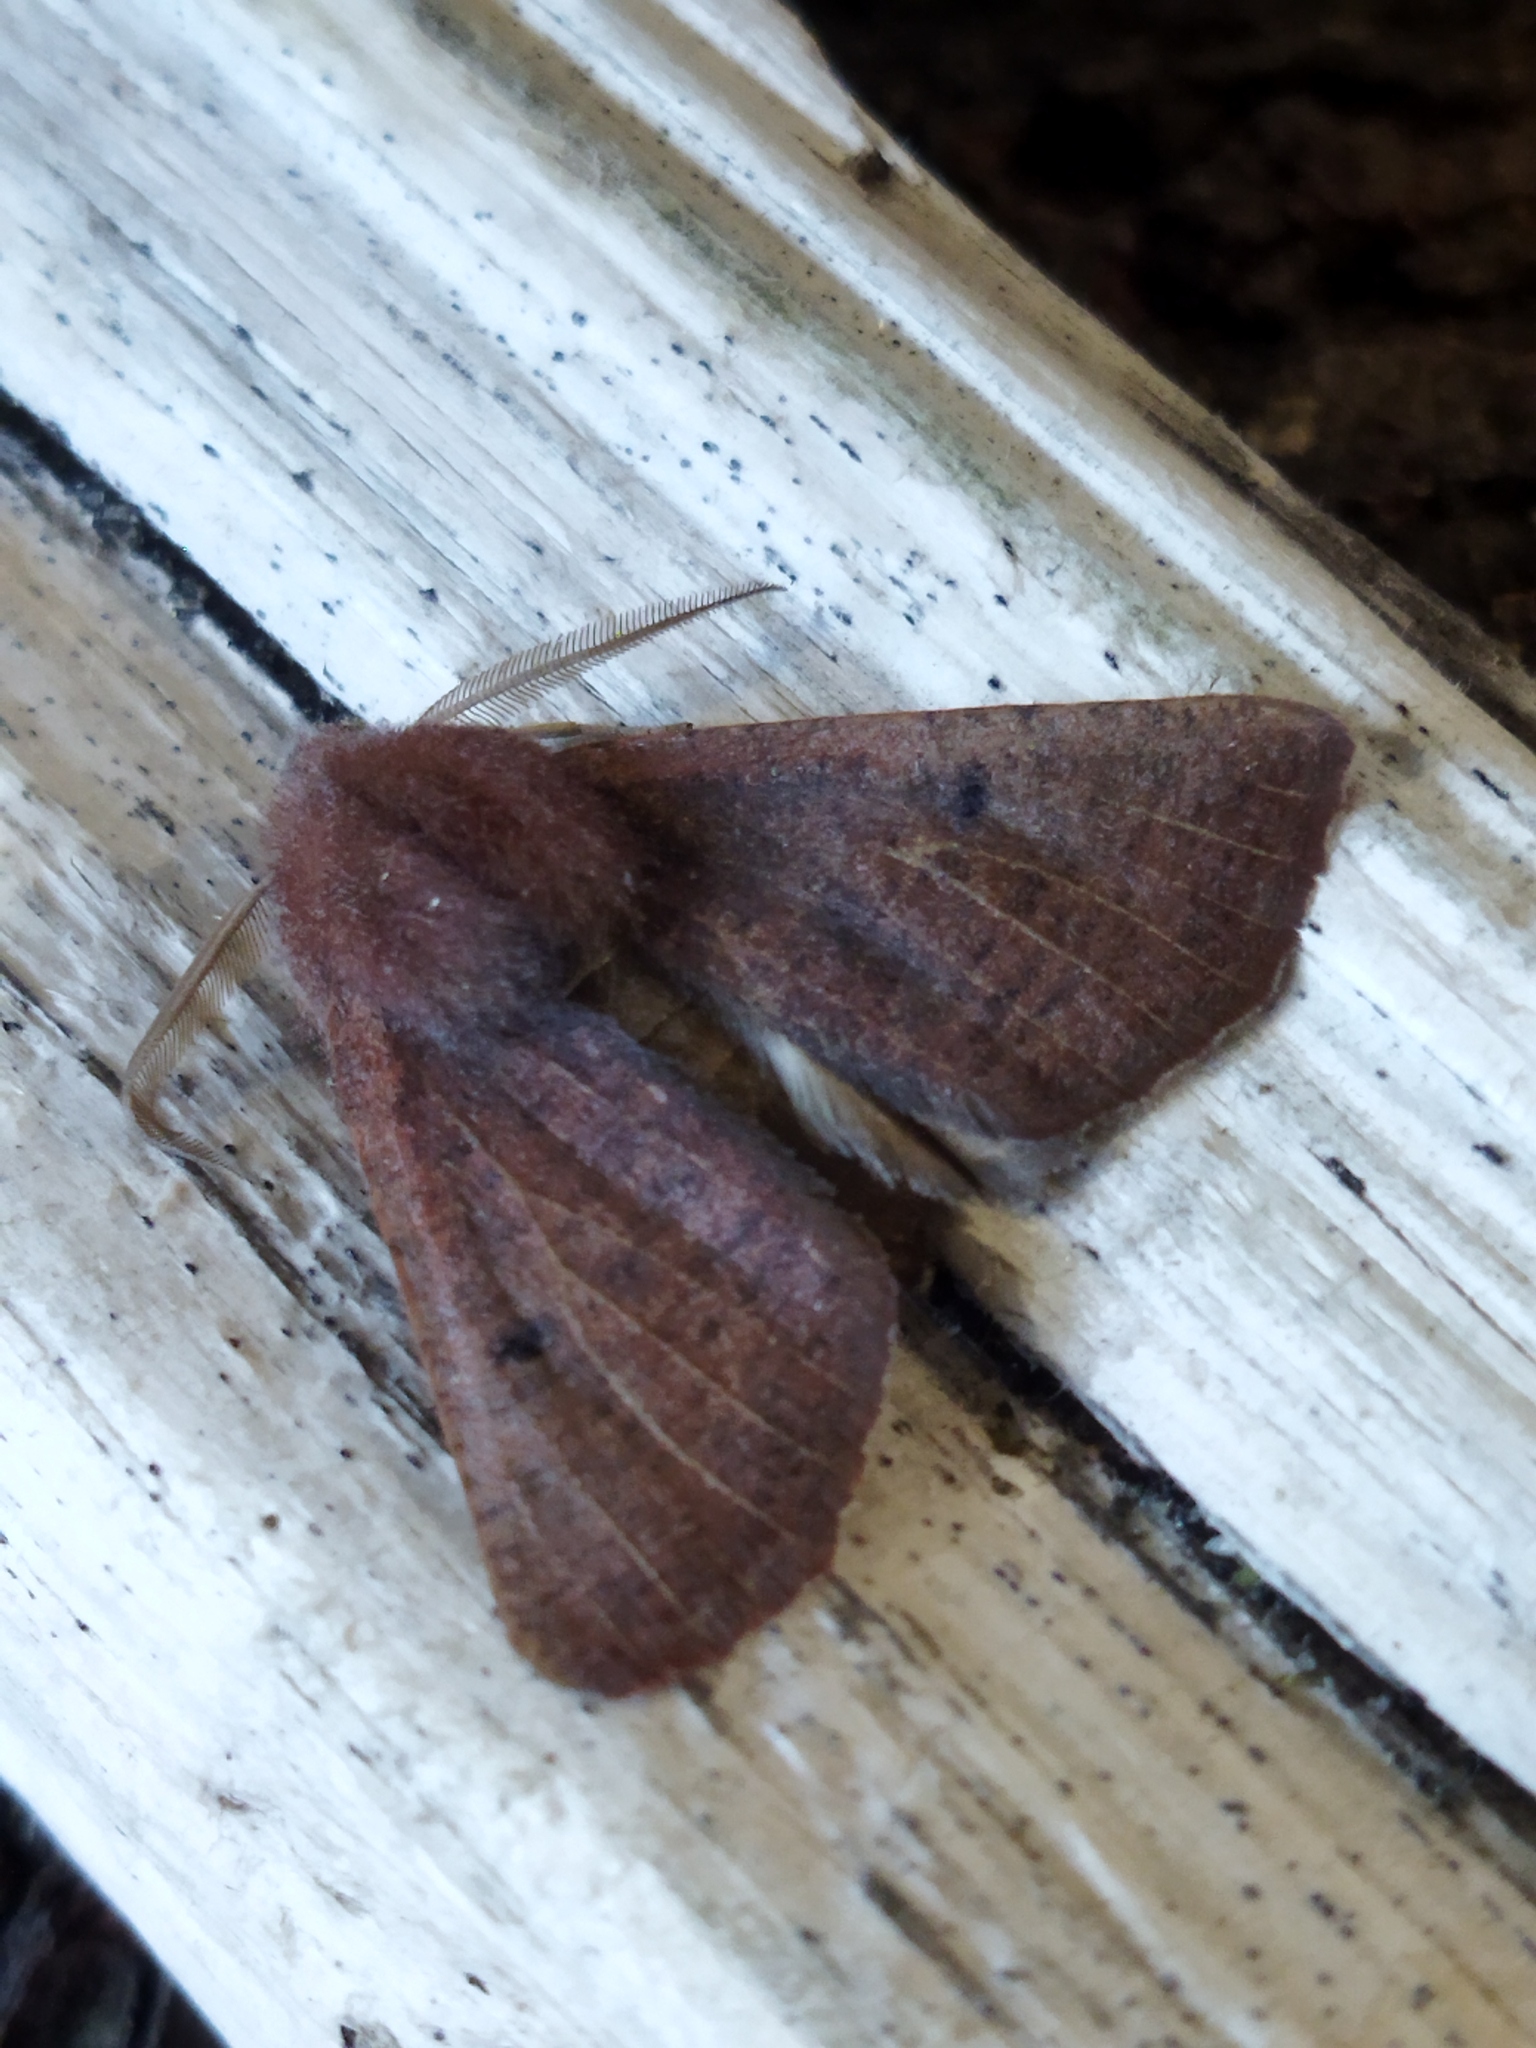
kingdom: Animalia
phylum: Arthropoda
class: Insecta
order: Lepidoptera
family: Geometridae
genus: Dasycorsa
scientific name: Dasycorsa modesta
